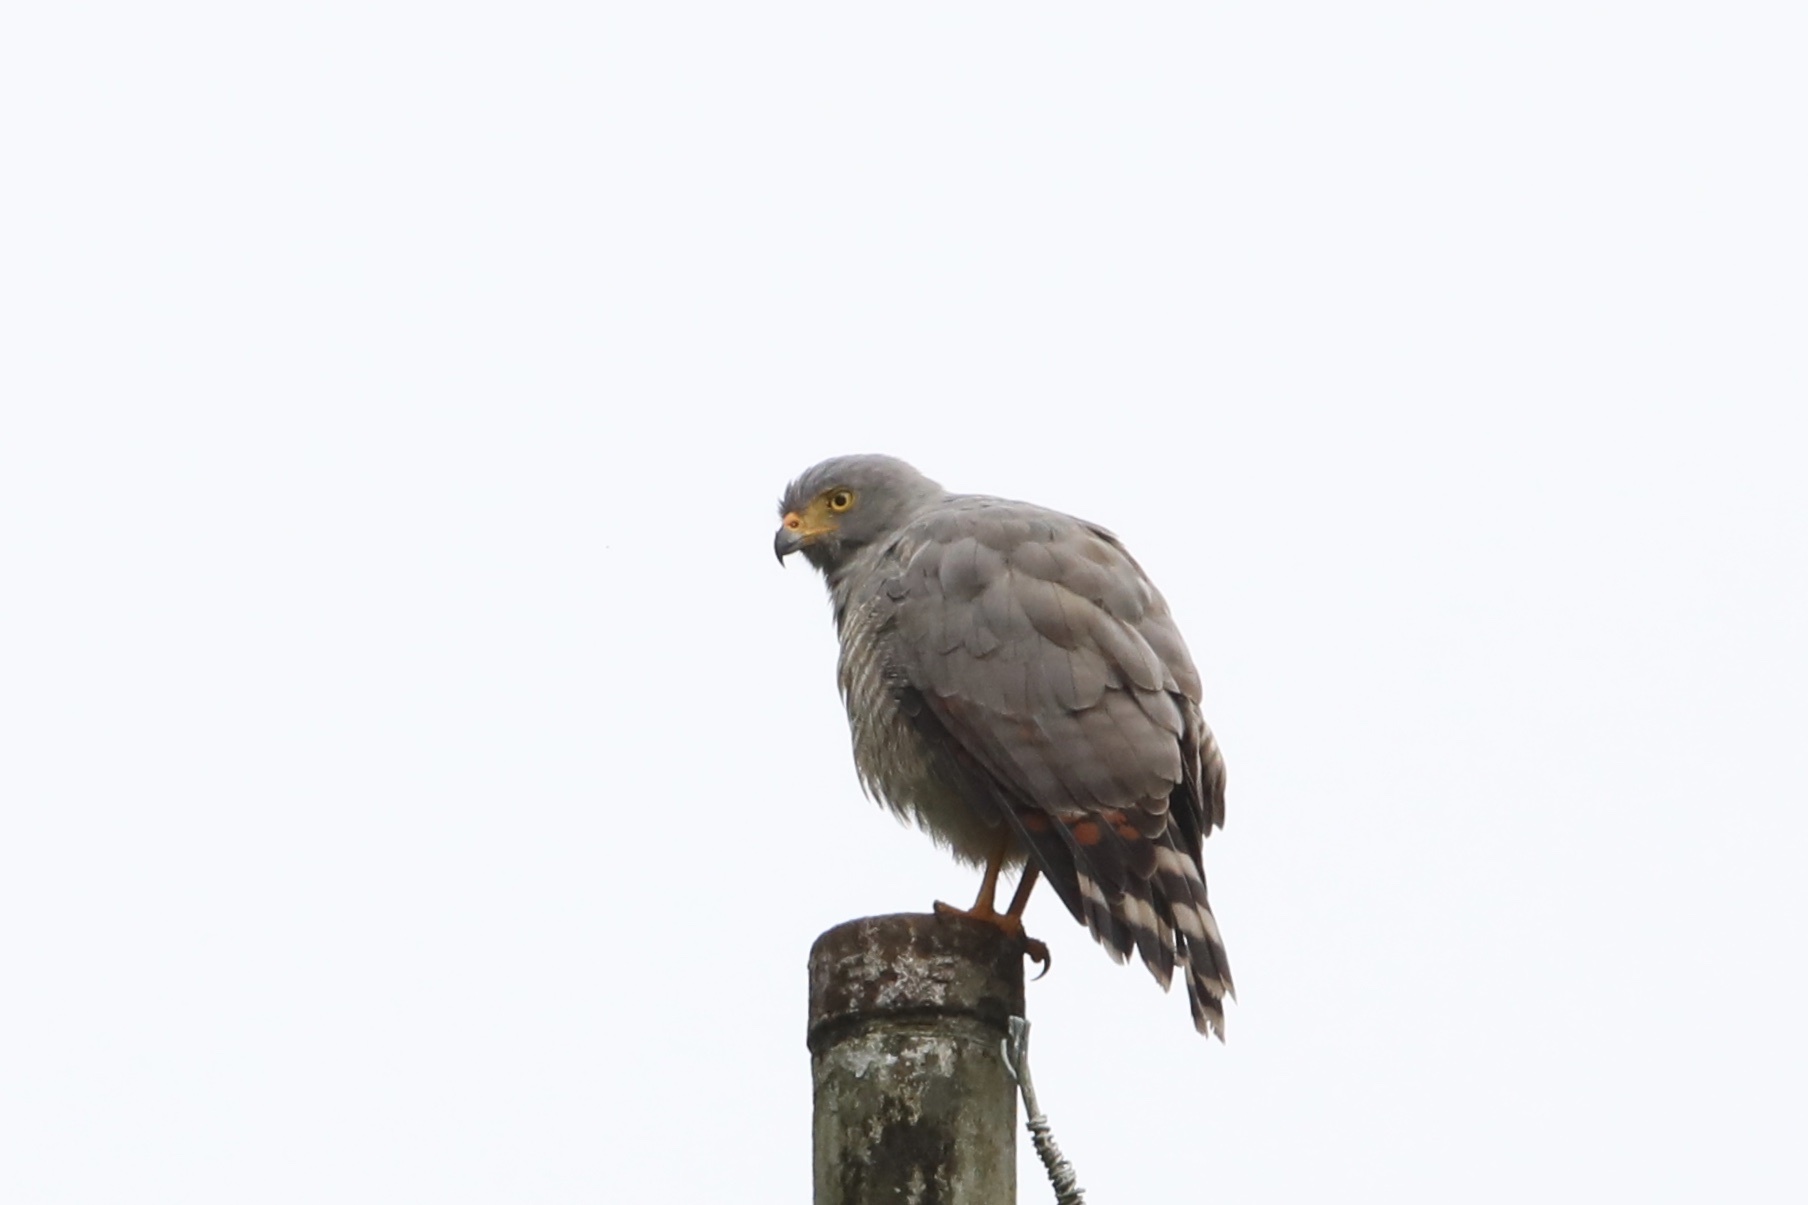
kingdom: Animalia
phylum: Chordata
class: Aves
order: Accipitriformes
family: Accipitridae
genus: Rupornis
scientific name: Rupornis magnirostris
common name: Roadside hawk
